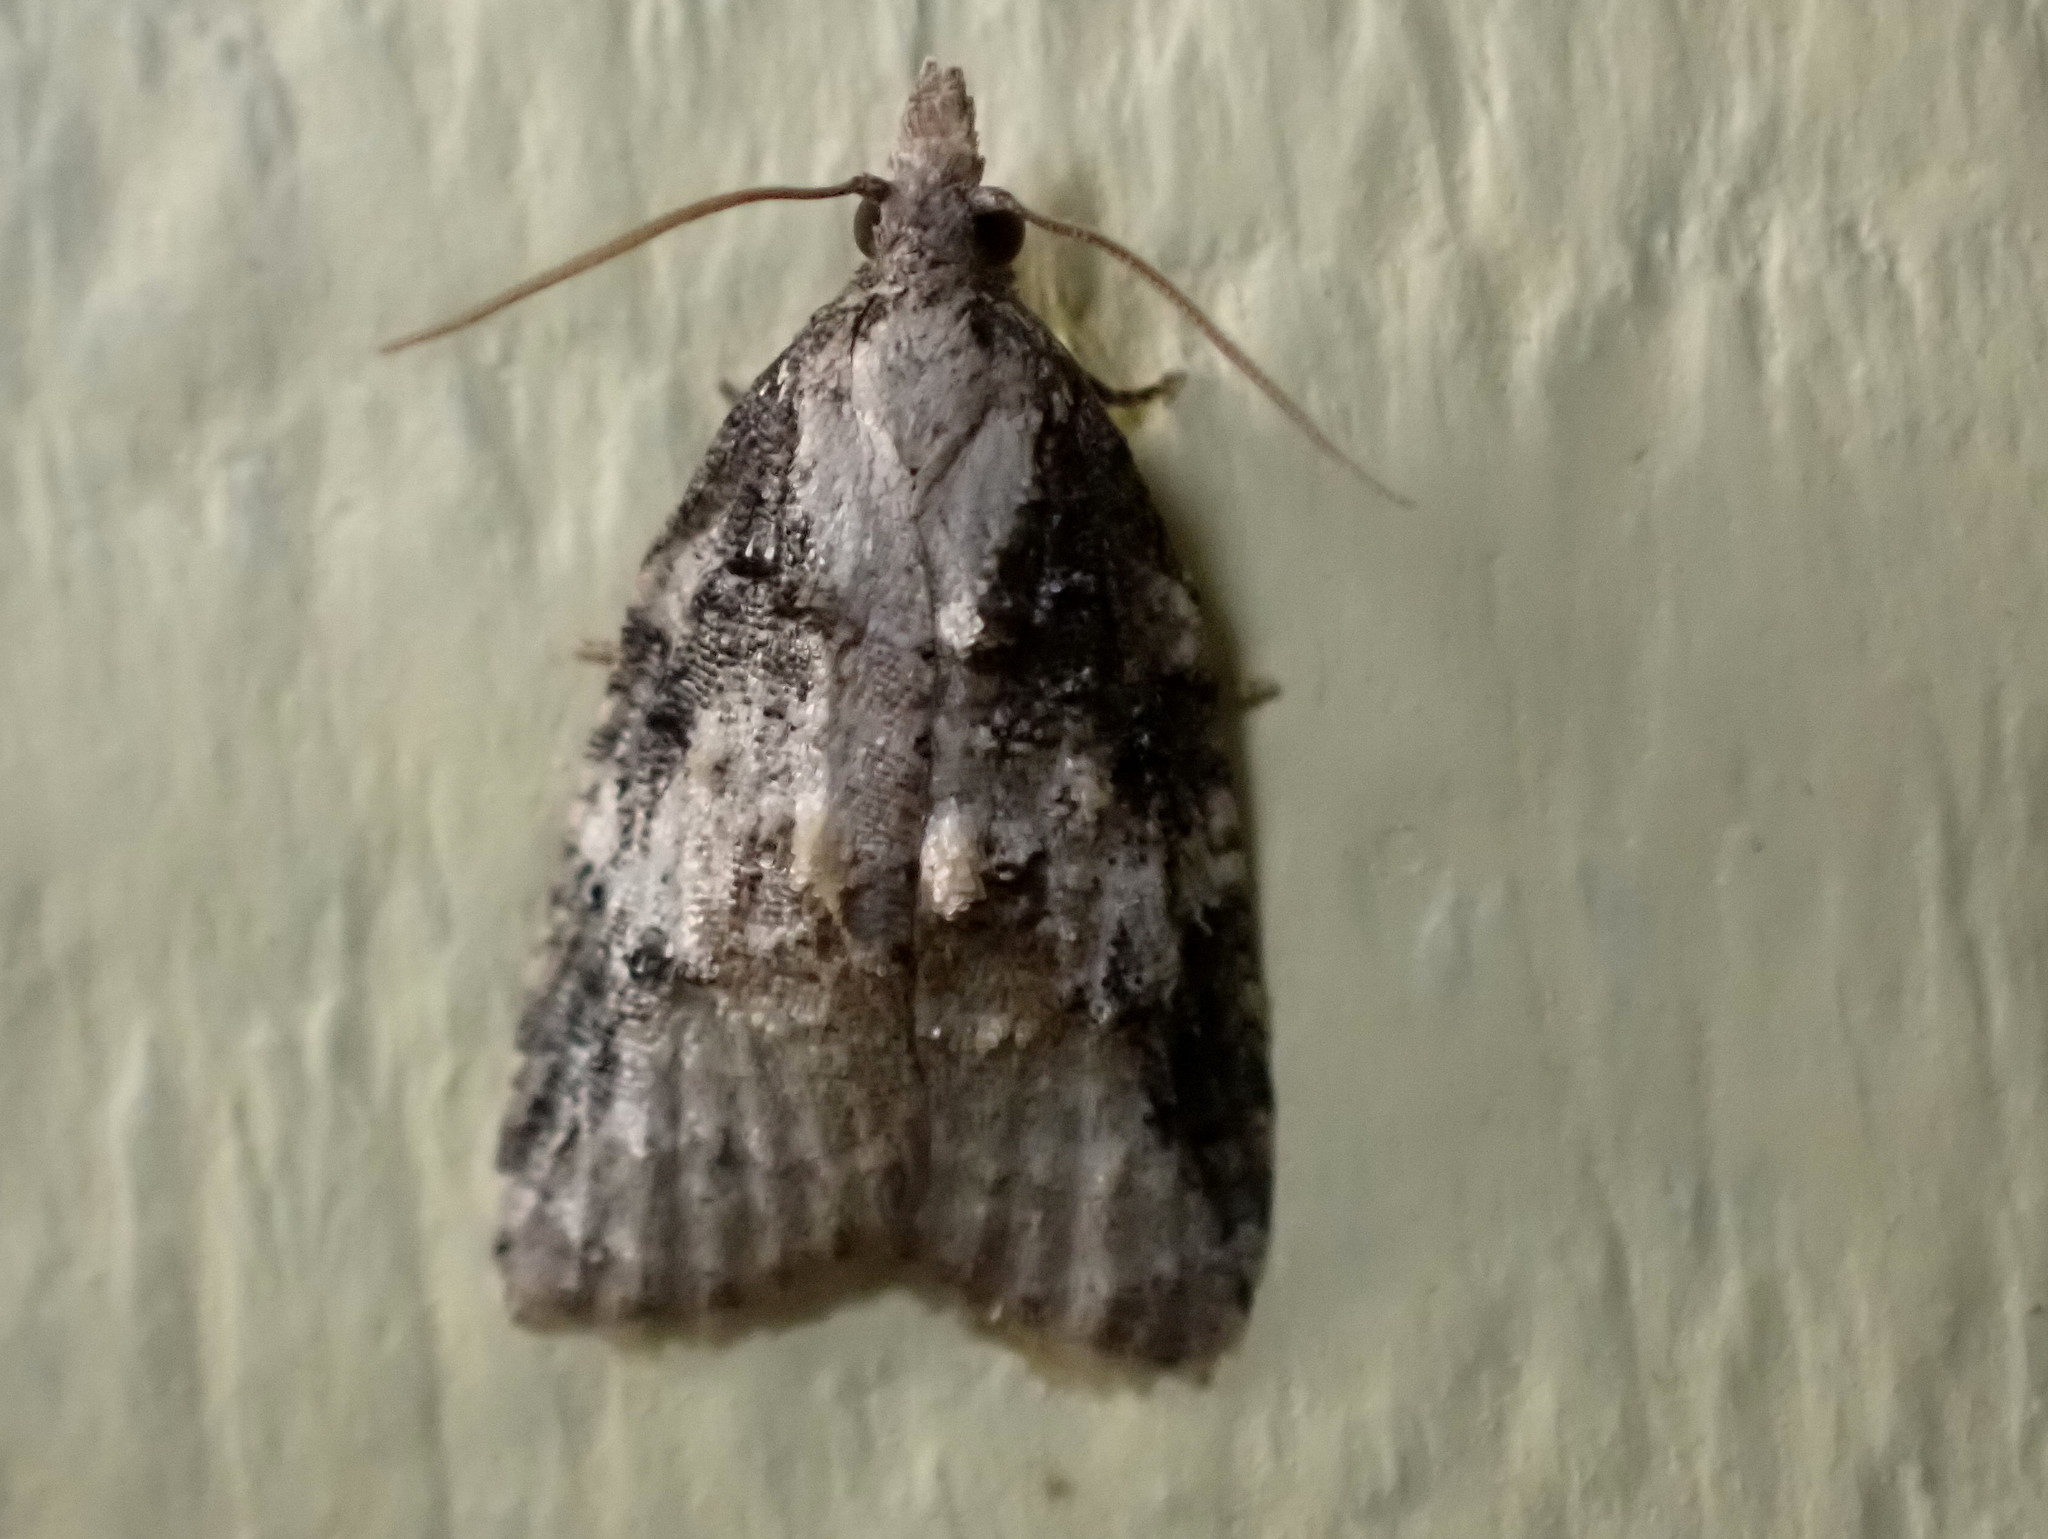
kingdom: Animalia
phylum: Arthropoda
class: Insecta
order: Lepidoptera
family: Tortricidae
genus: Platynota
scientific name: Platynota exasperatana
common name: Exasperating platynota moth
